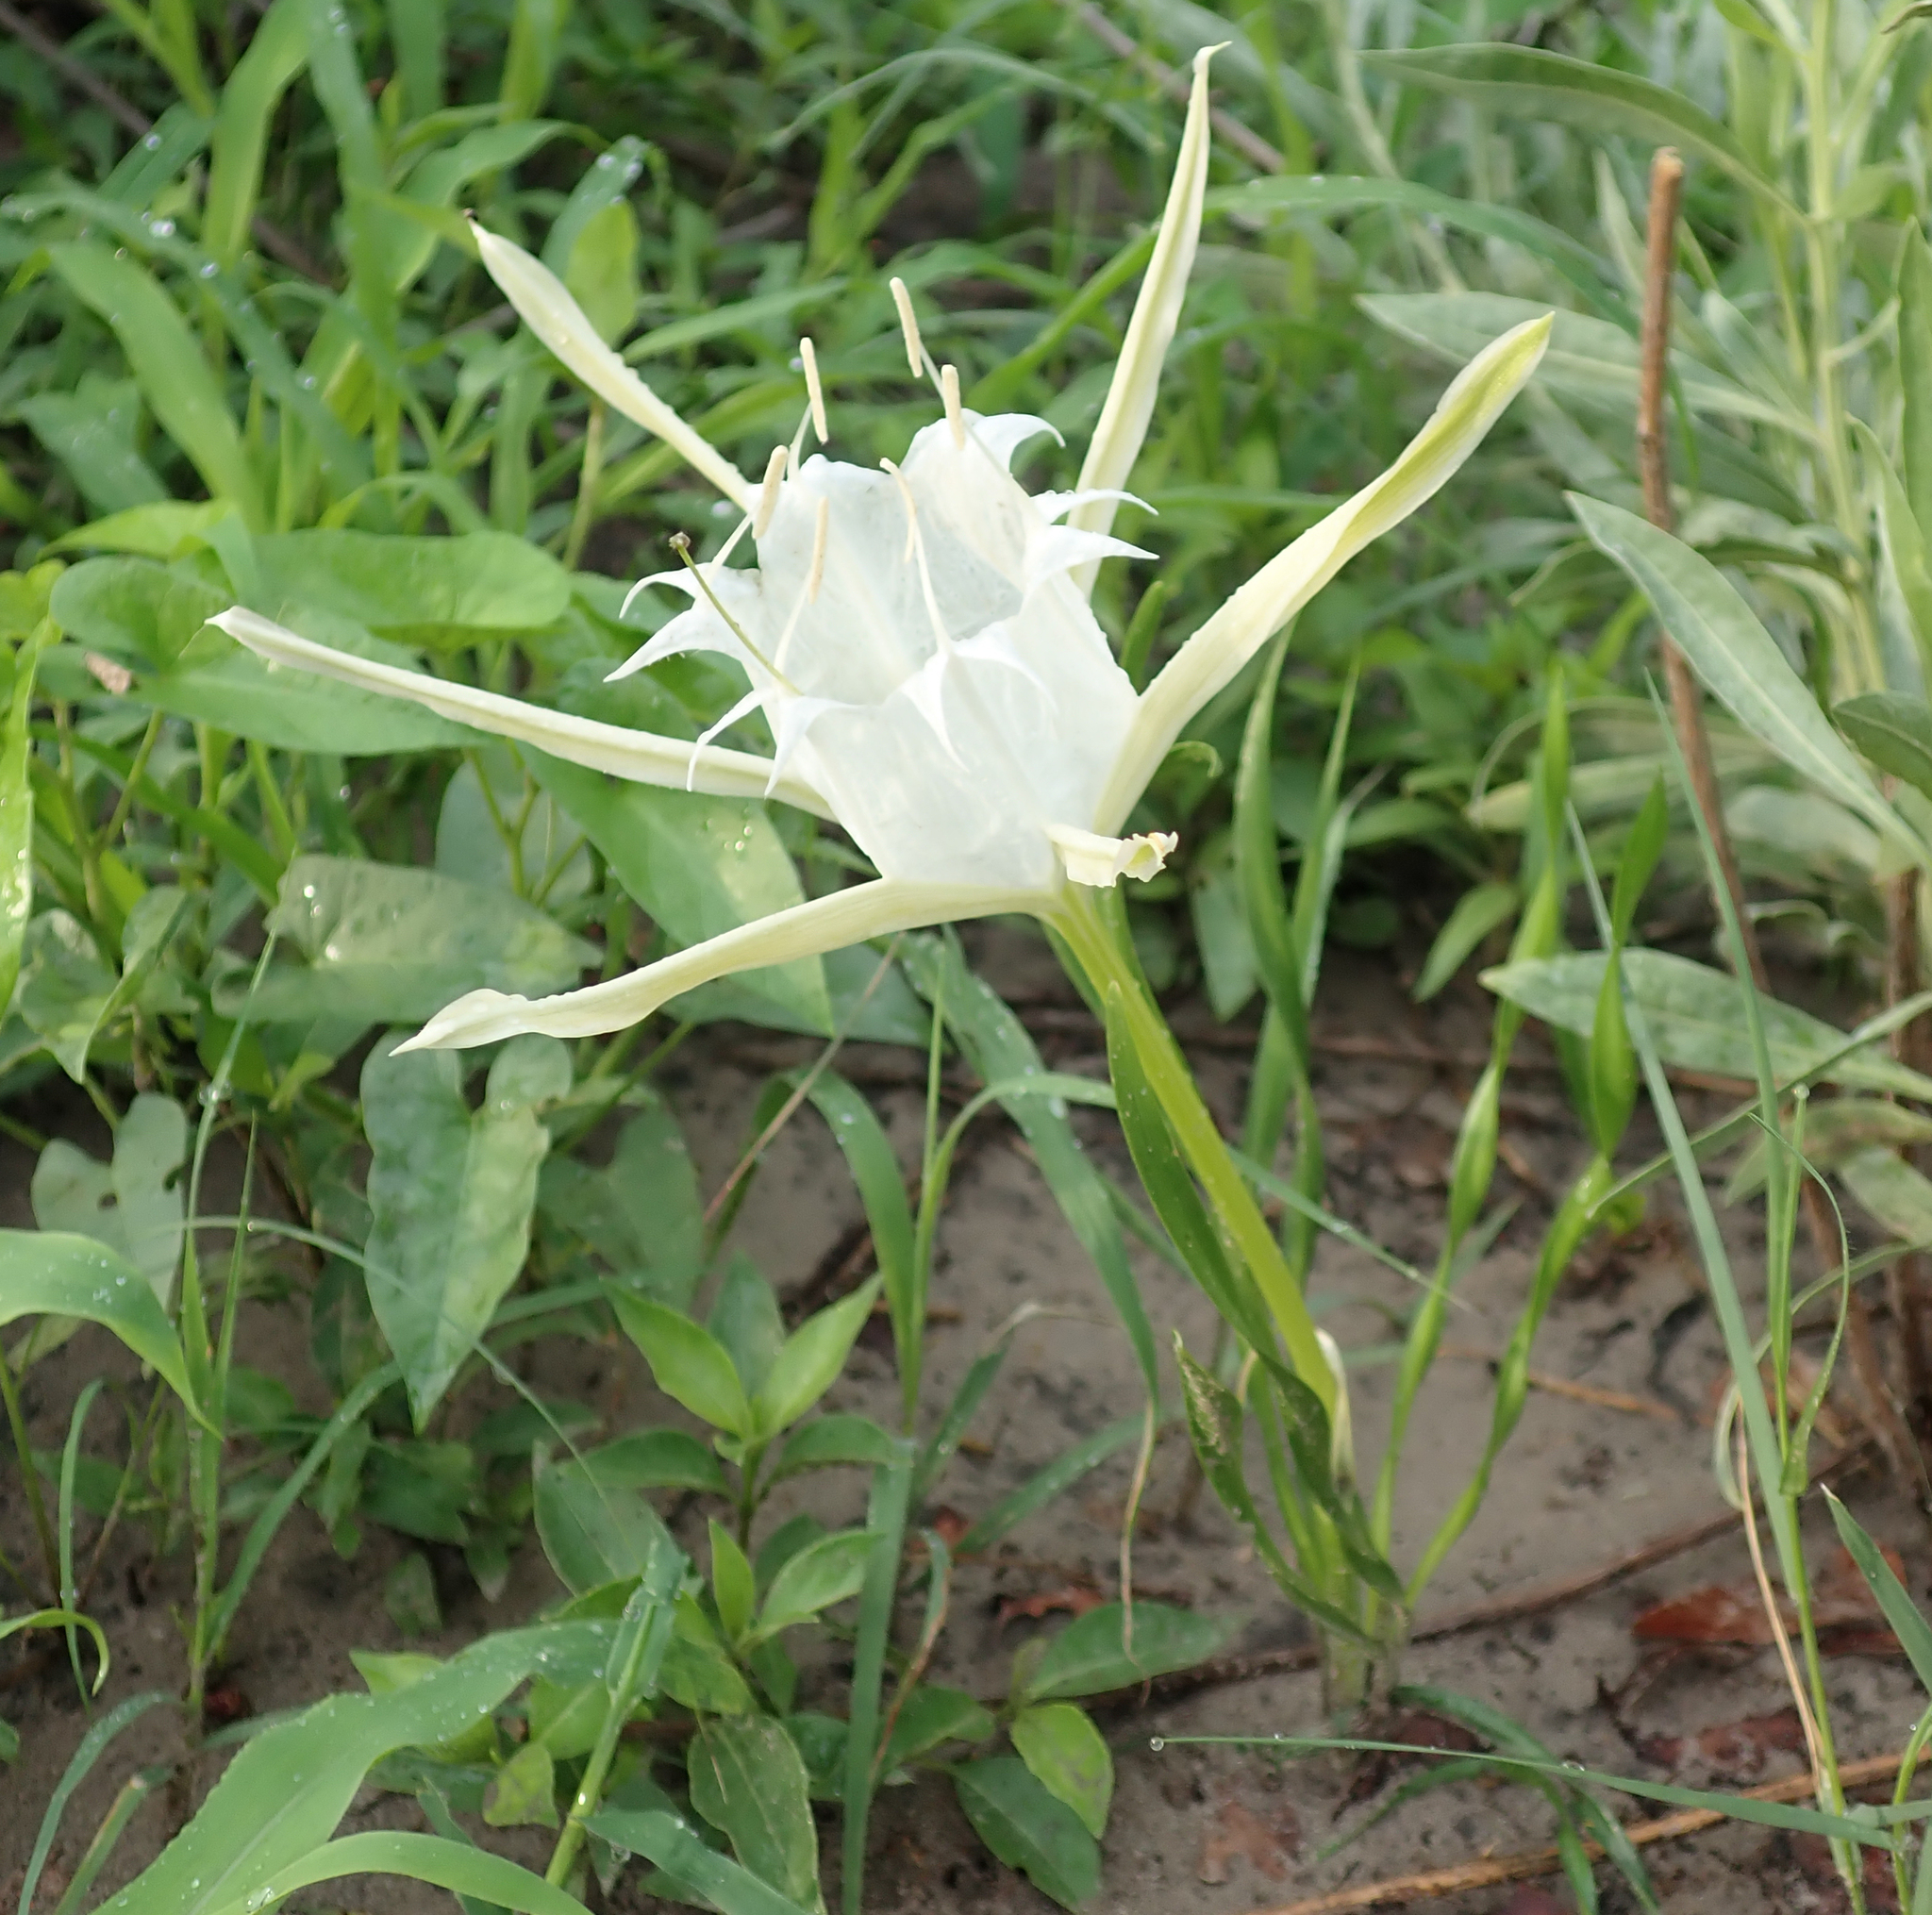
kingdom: Plantae
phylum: Tracheophyta
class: Liliopsida
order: Asparagales
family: Amaryllidaceae
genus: Pancratium
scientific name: Pancratium tenuifolium
